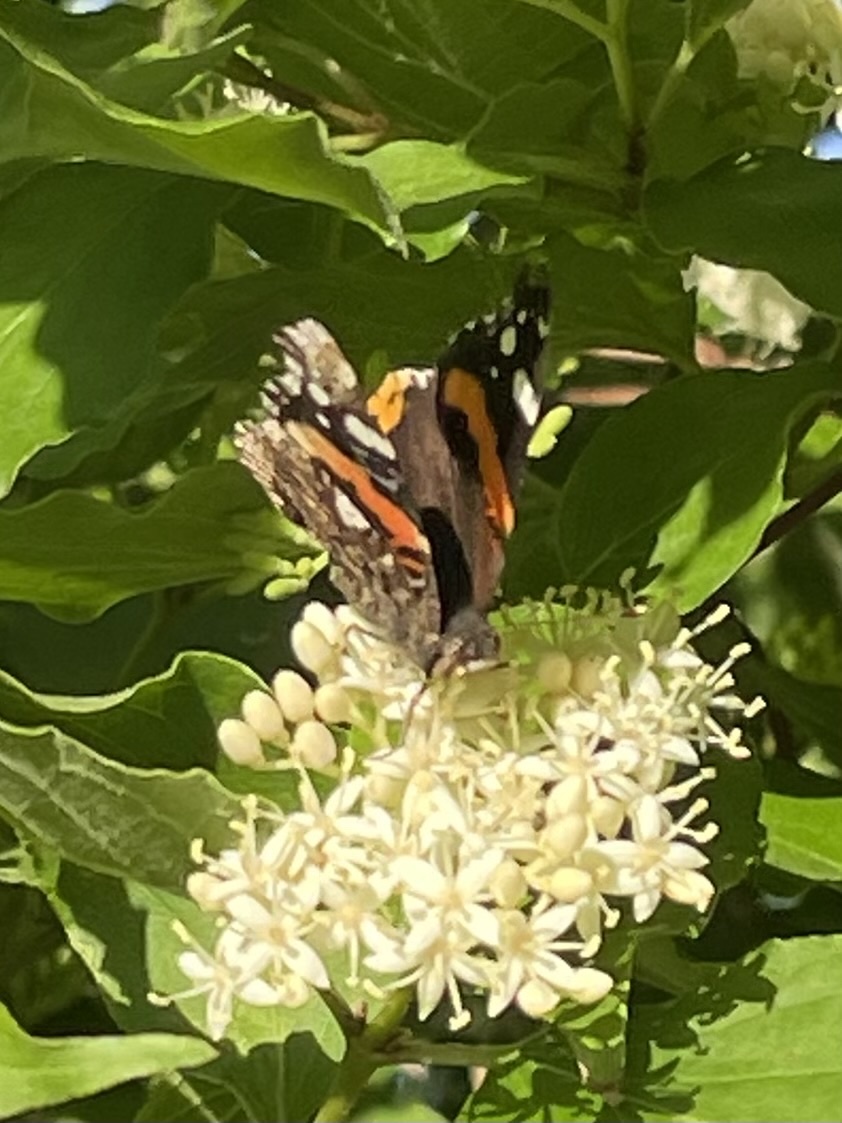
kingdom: Animalia
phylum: Arthropoda
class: Insecta
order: Lepidoptera
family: Nymphalidae
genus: Vanessa
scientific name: Vanessa atalanta
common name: Red admiral
